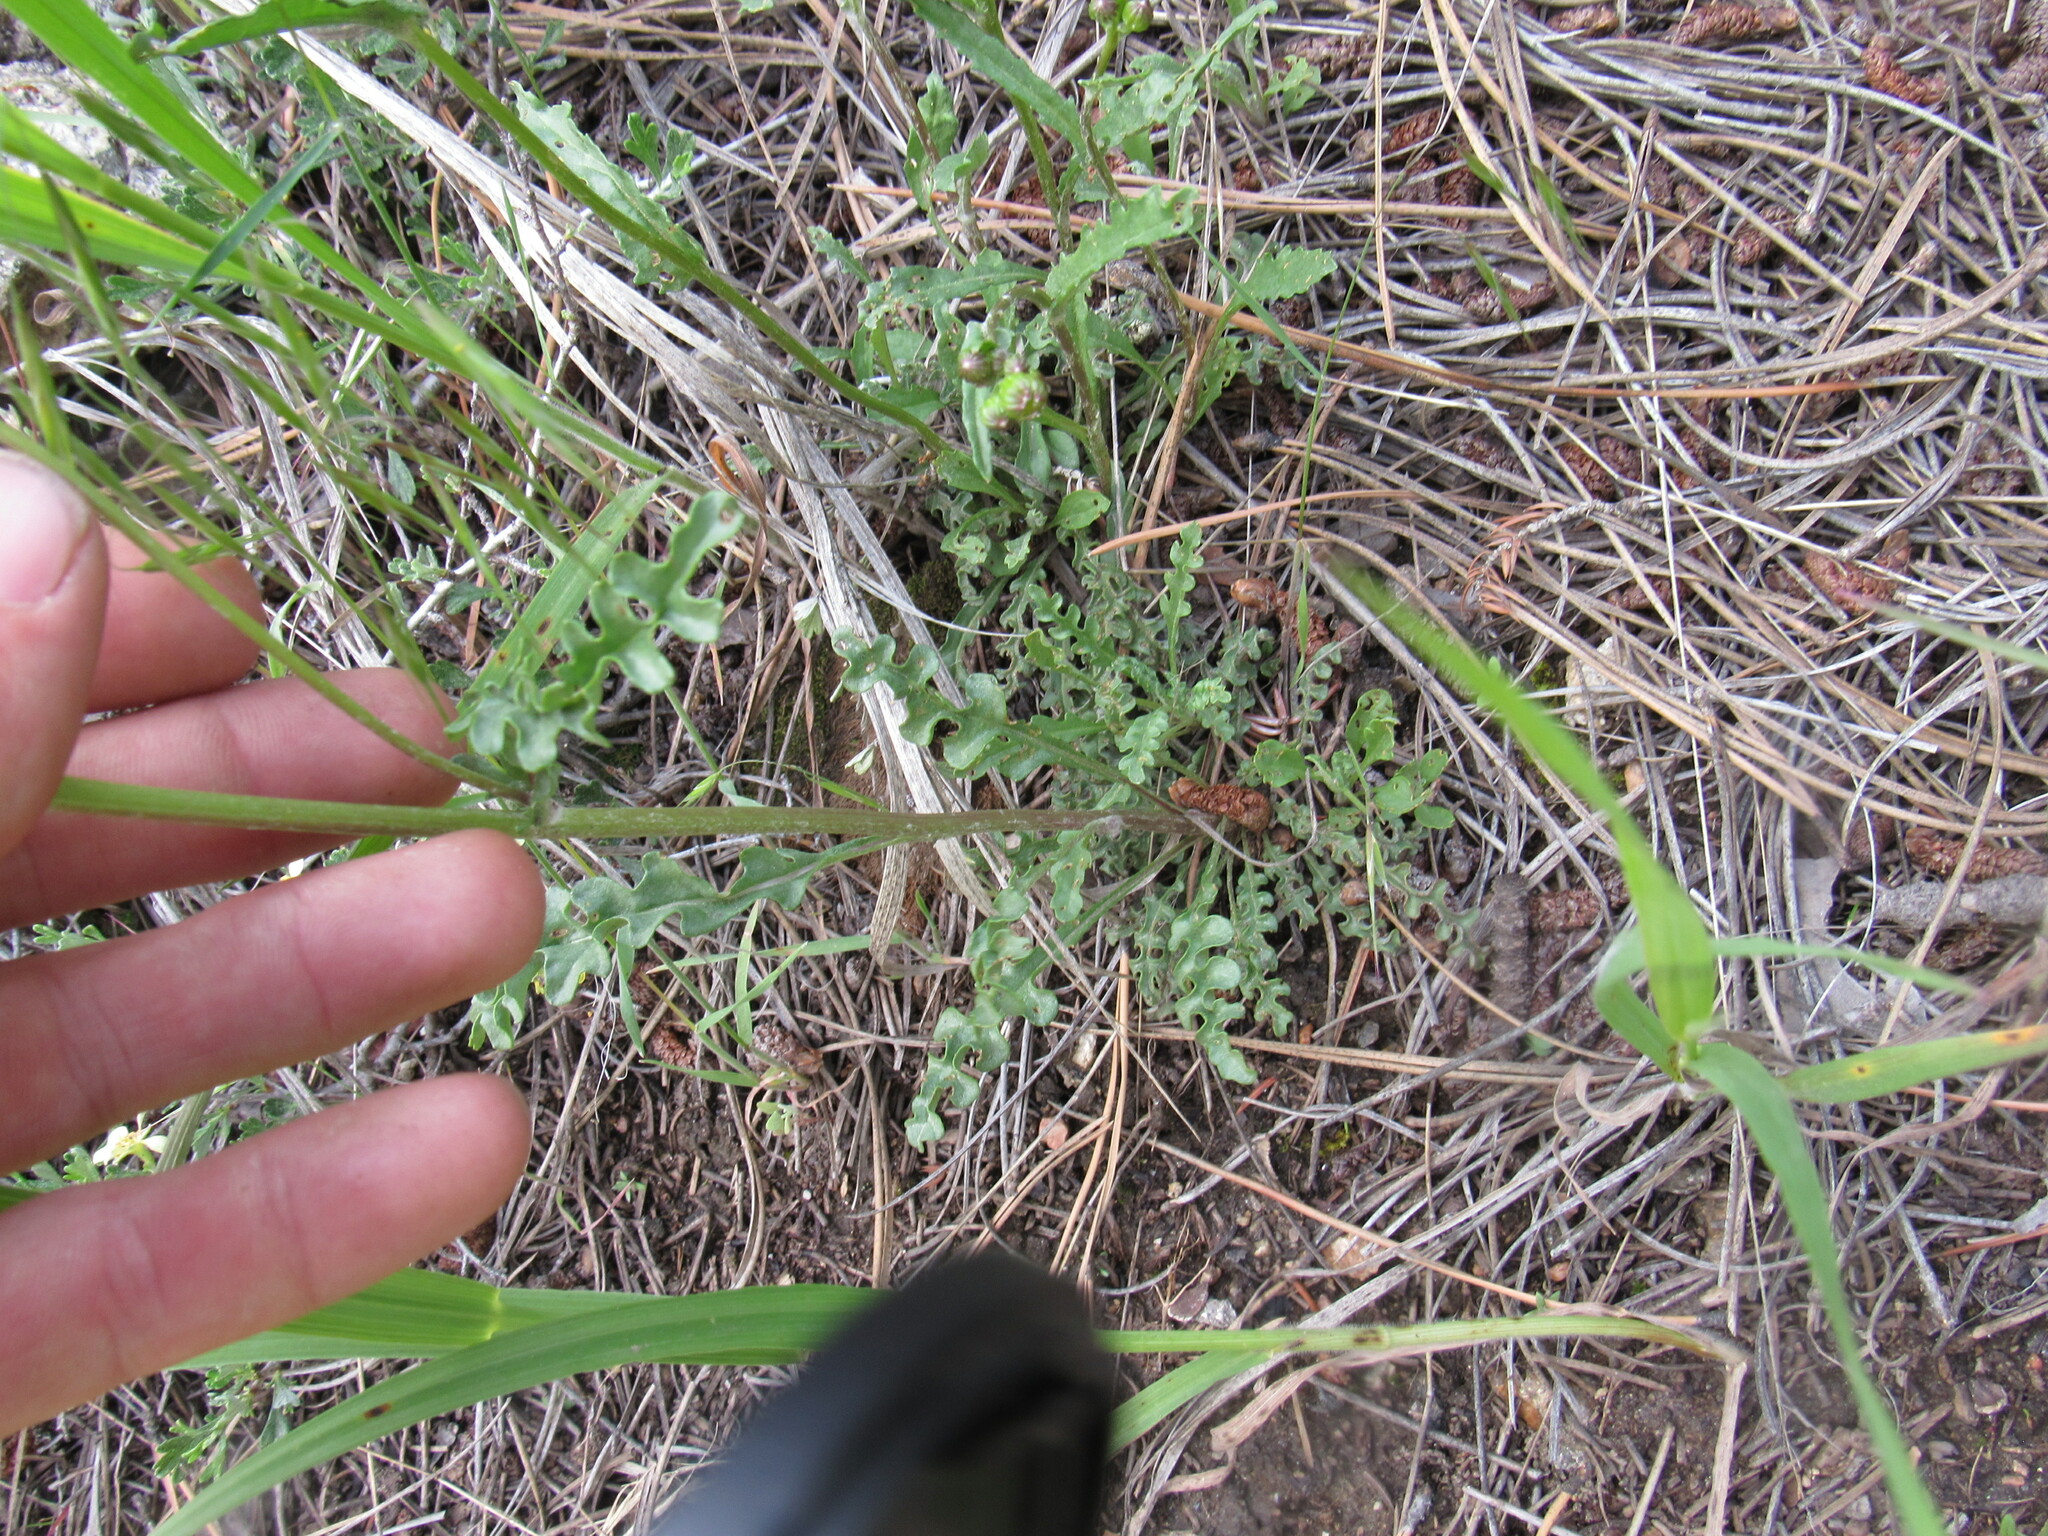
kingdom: Plantae
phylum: Tracheophyta
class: Magnoliopsida
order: Asterales
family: Asteraceae
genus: Packera
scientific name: Packera fendleri
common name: Notch-leaf butterweed
